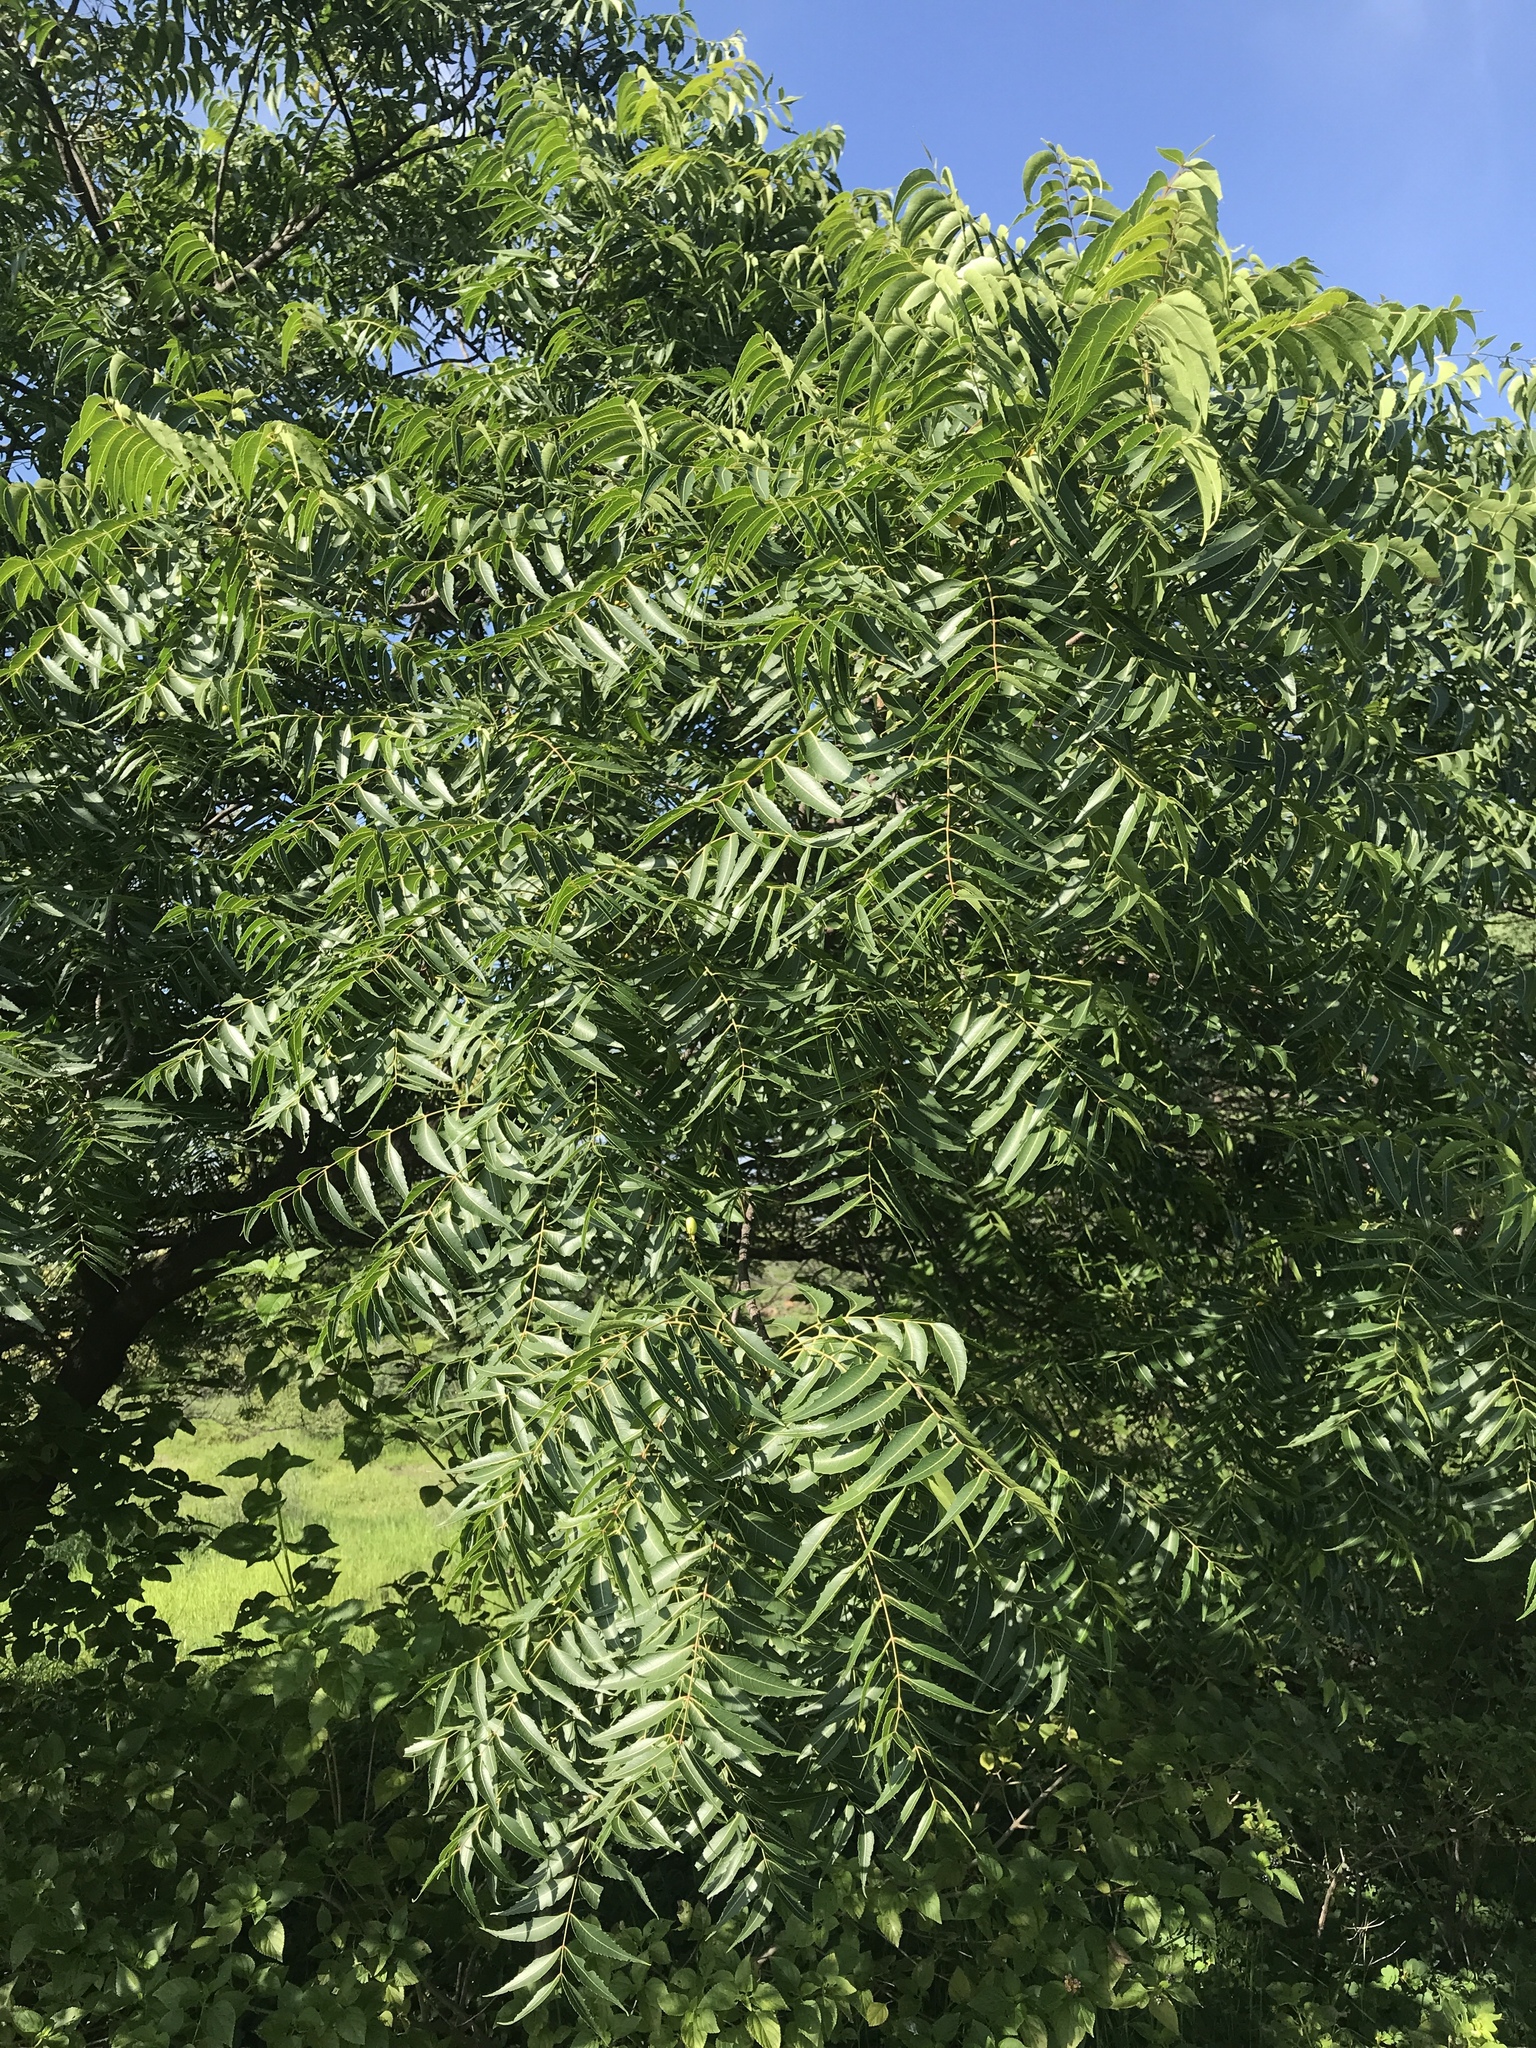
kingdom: Plantae
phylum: Tracheophyta
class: Magnoliopsida
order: Sapindales
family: Meliaceae
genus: Azadirachta
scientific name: Azadirachta indica
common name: Neem
